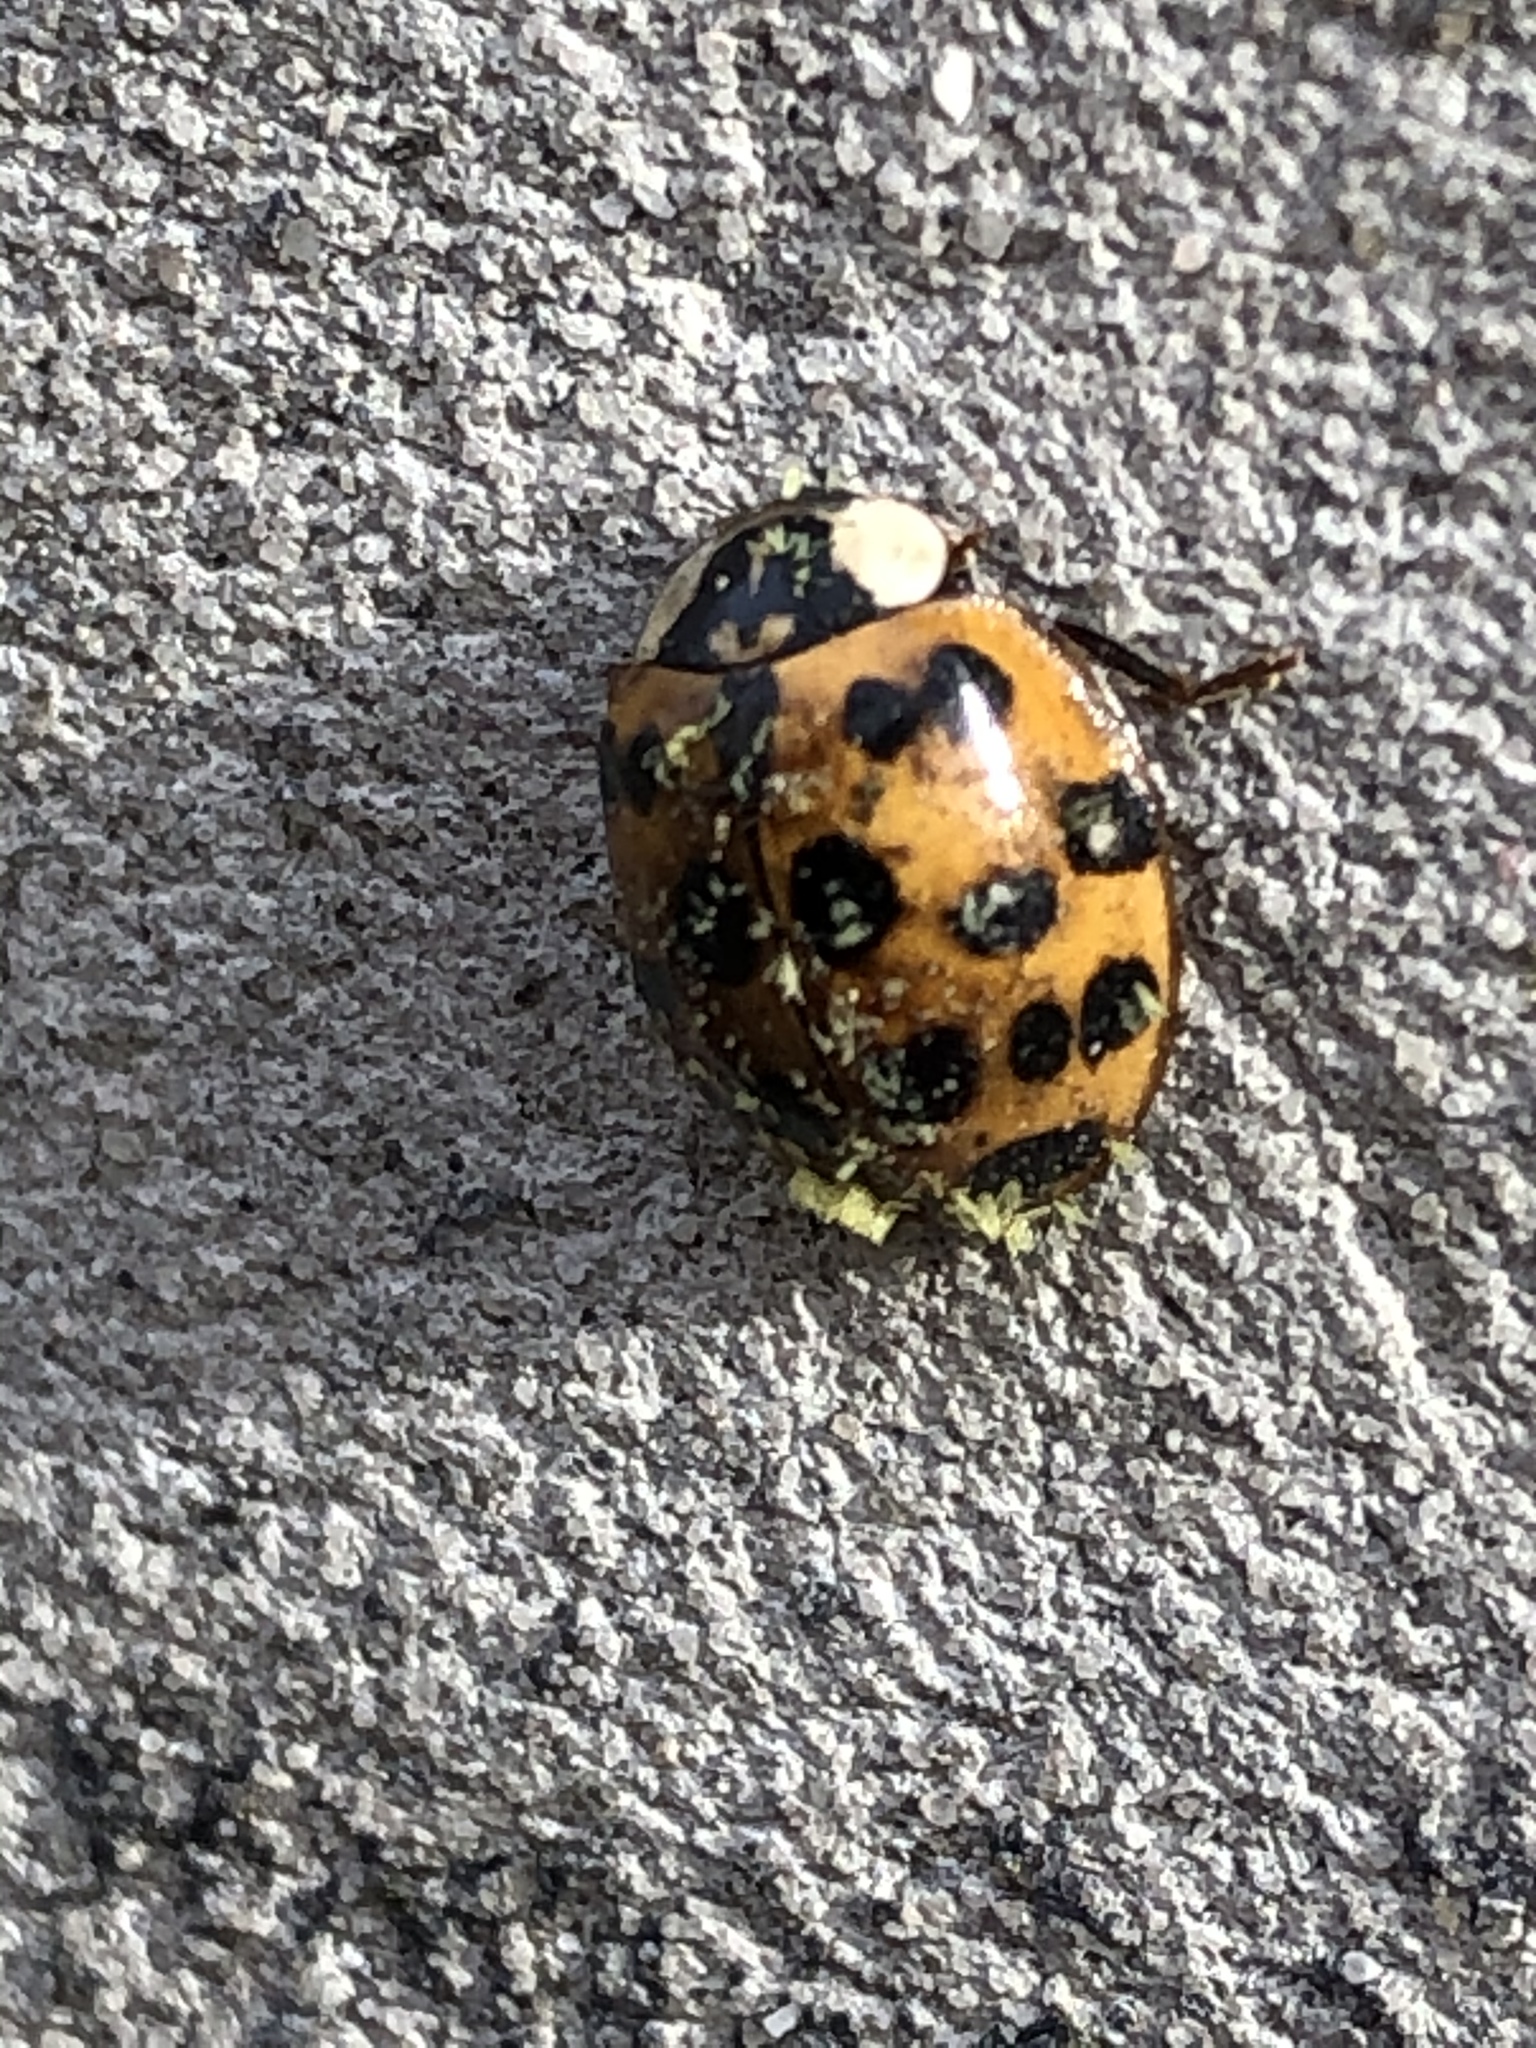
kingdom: Animalia
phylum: Arthropoda
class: Insecta
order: Coleoptera
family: Coccinellidae
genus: Harmonia
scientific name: Harmonia axyridis
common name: Harlequin ladybird
